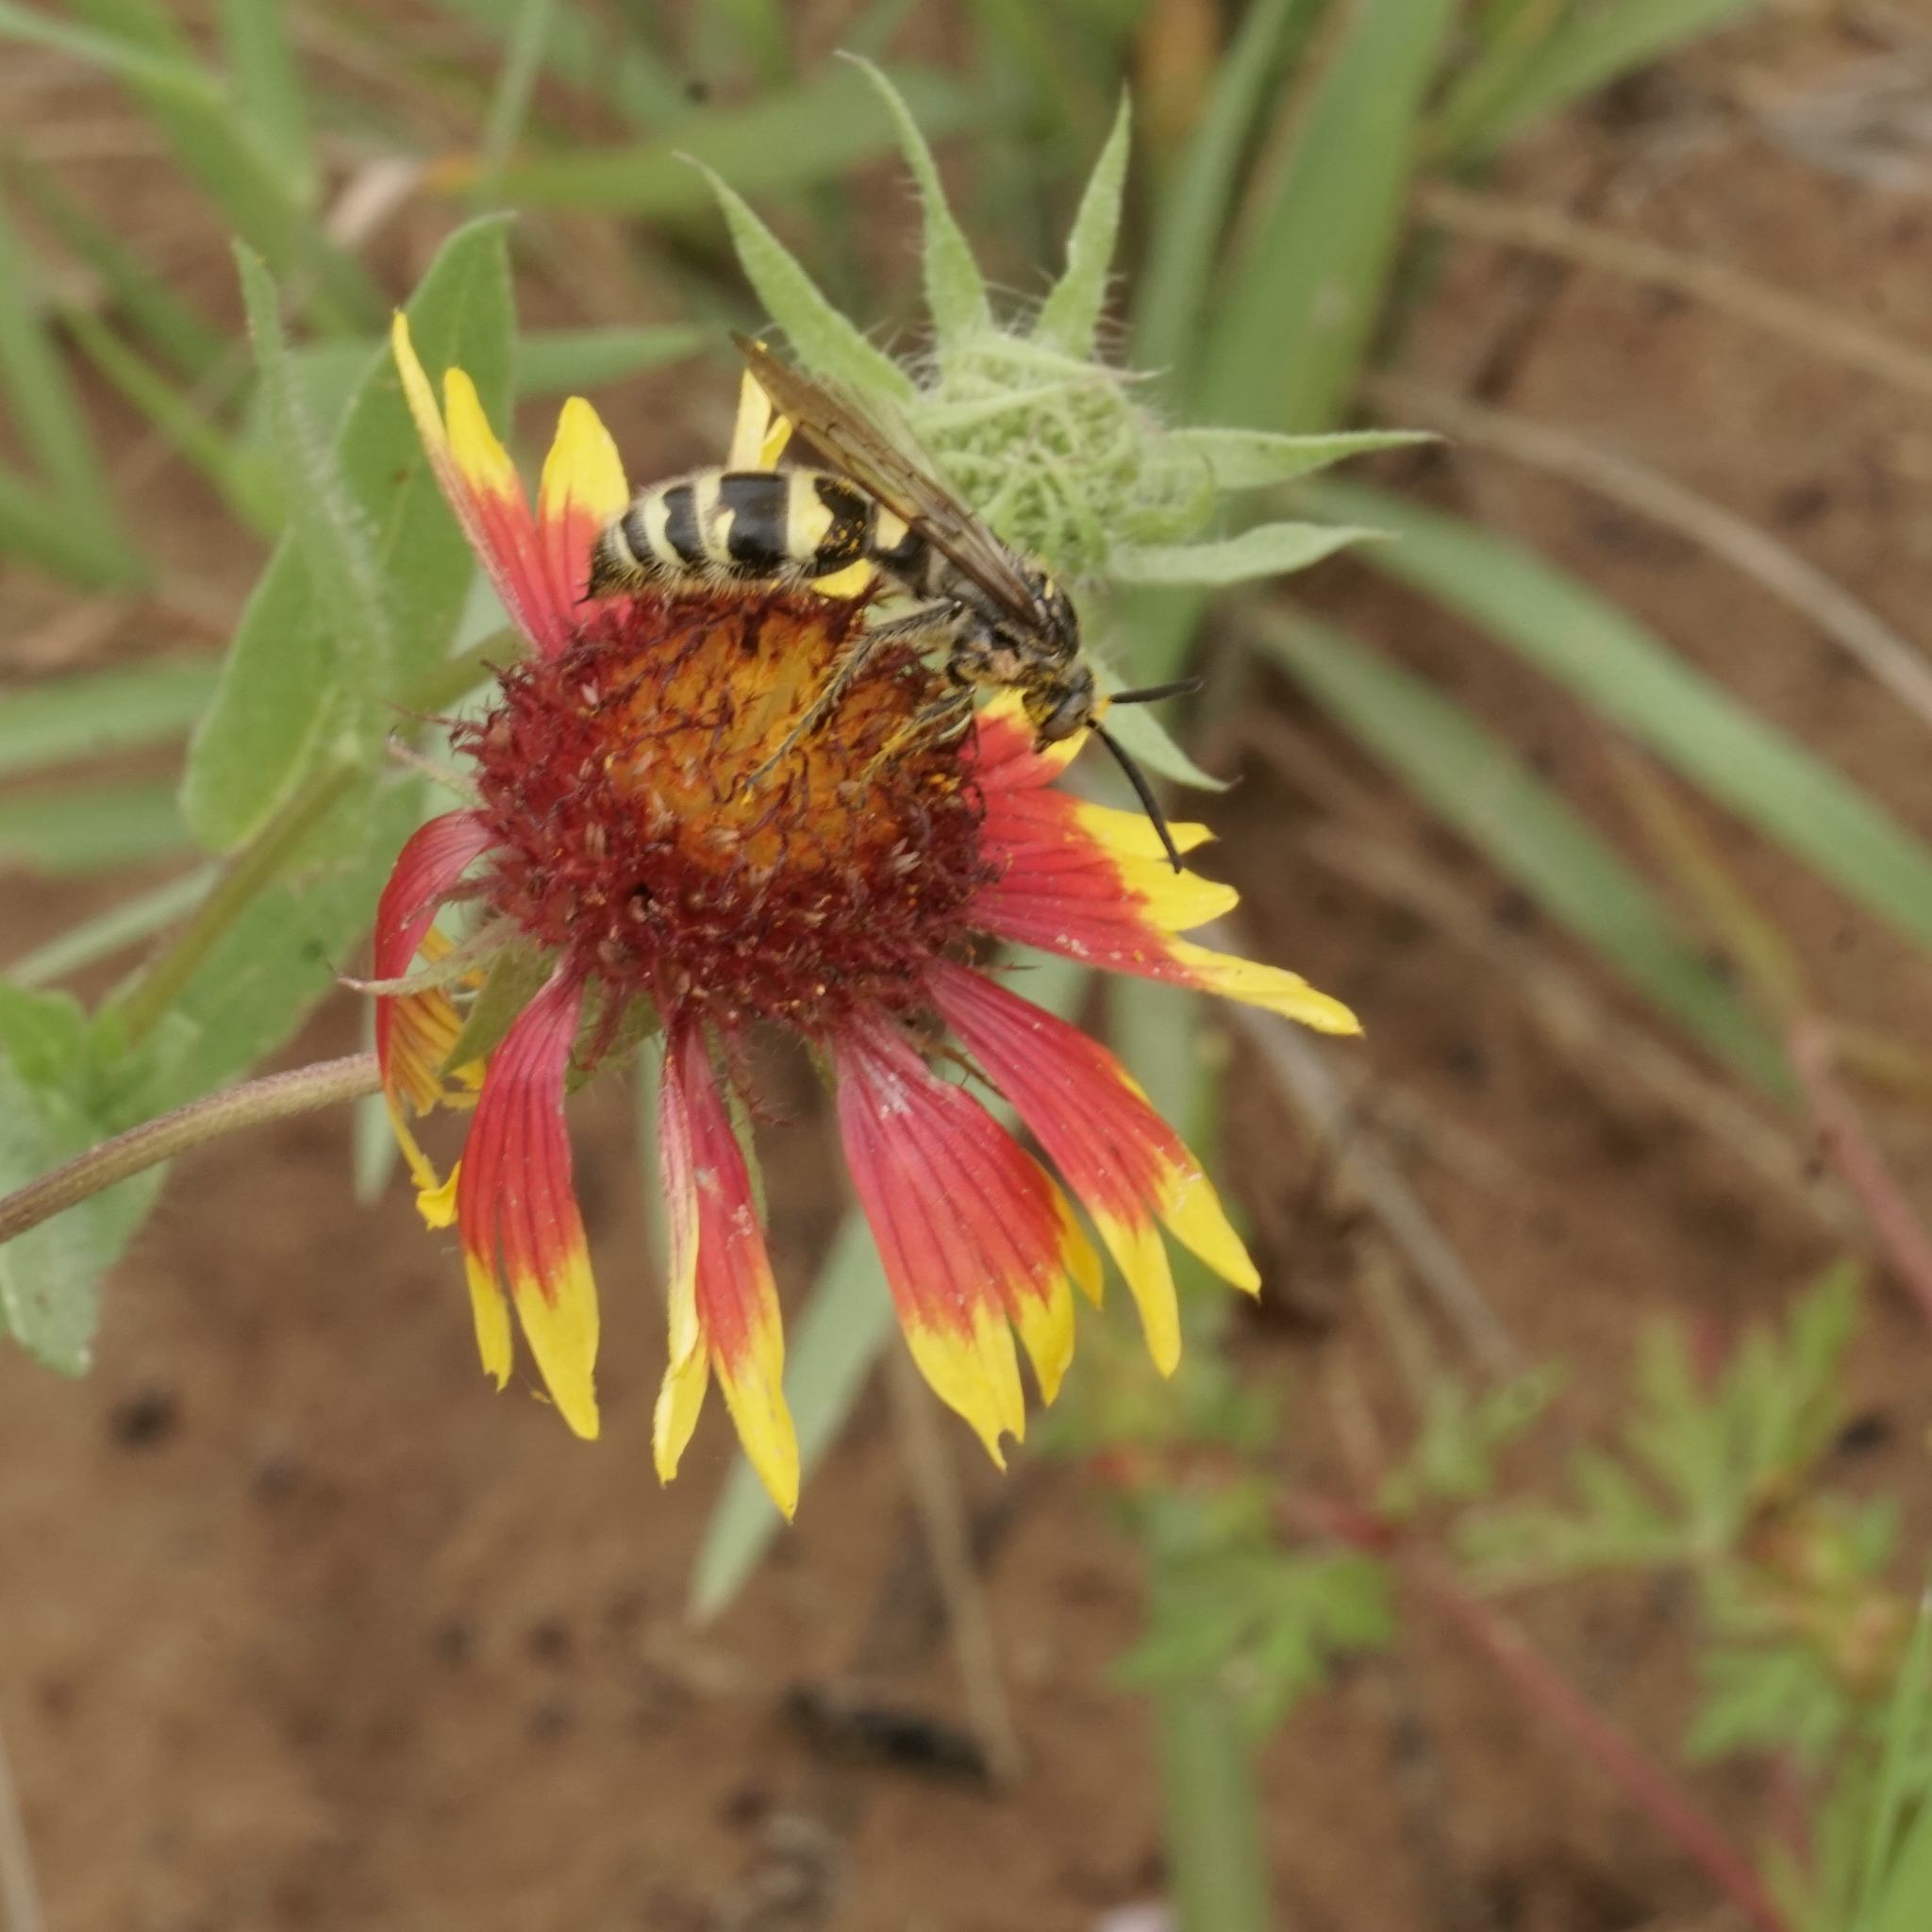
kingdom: Animalia
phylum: Arthropoda
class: Insecta
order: Hymenoptera
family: Scoliidae
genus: Dielis
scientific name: Dielis
